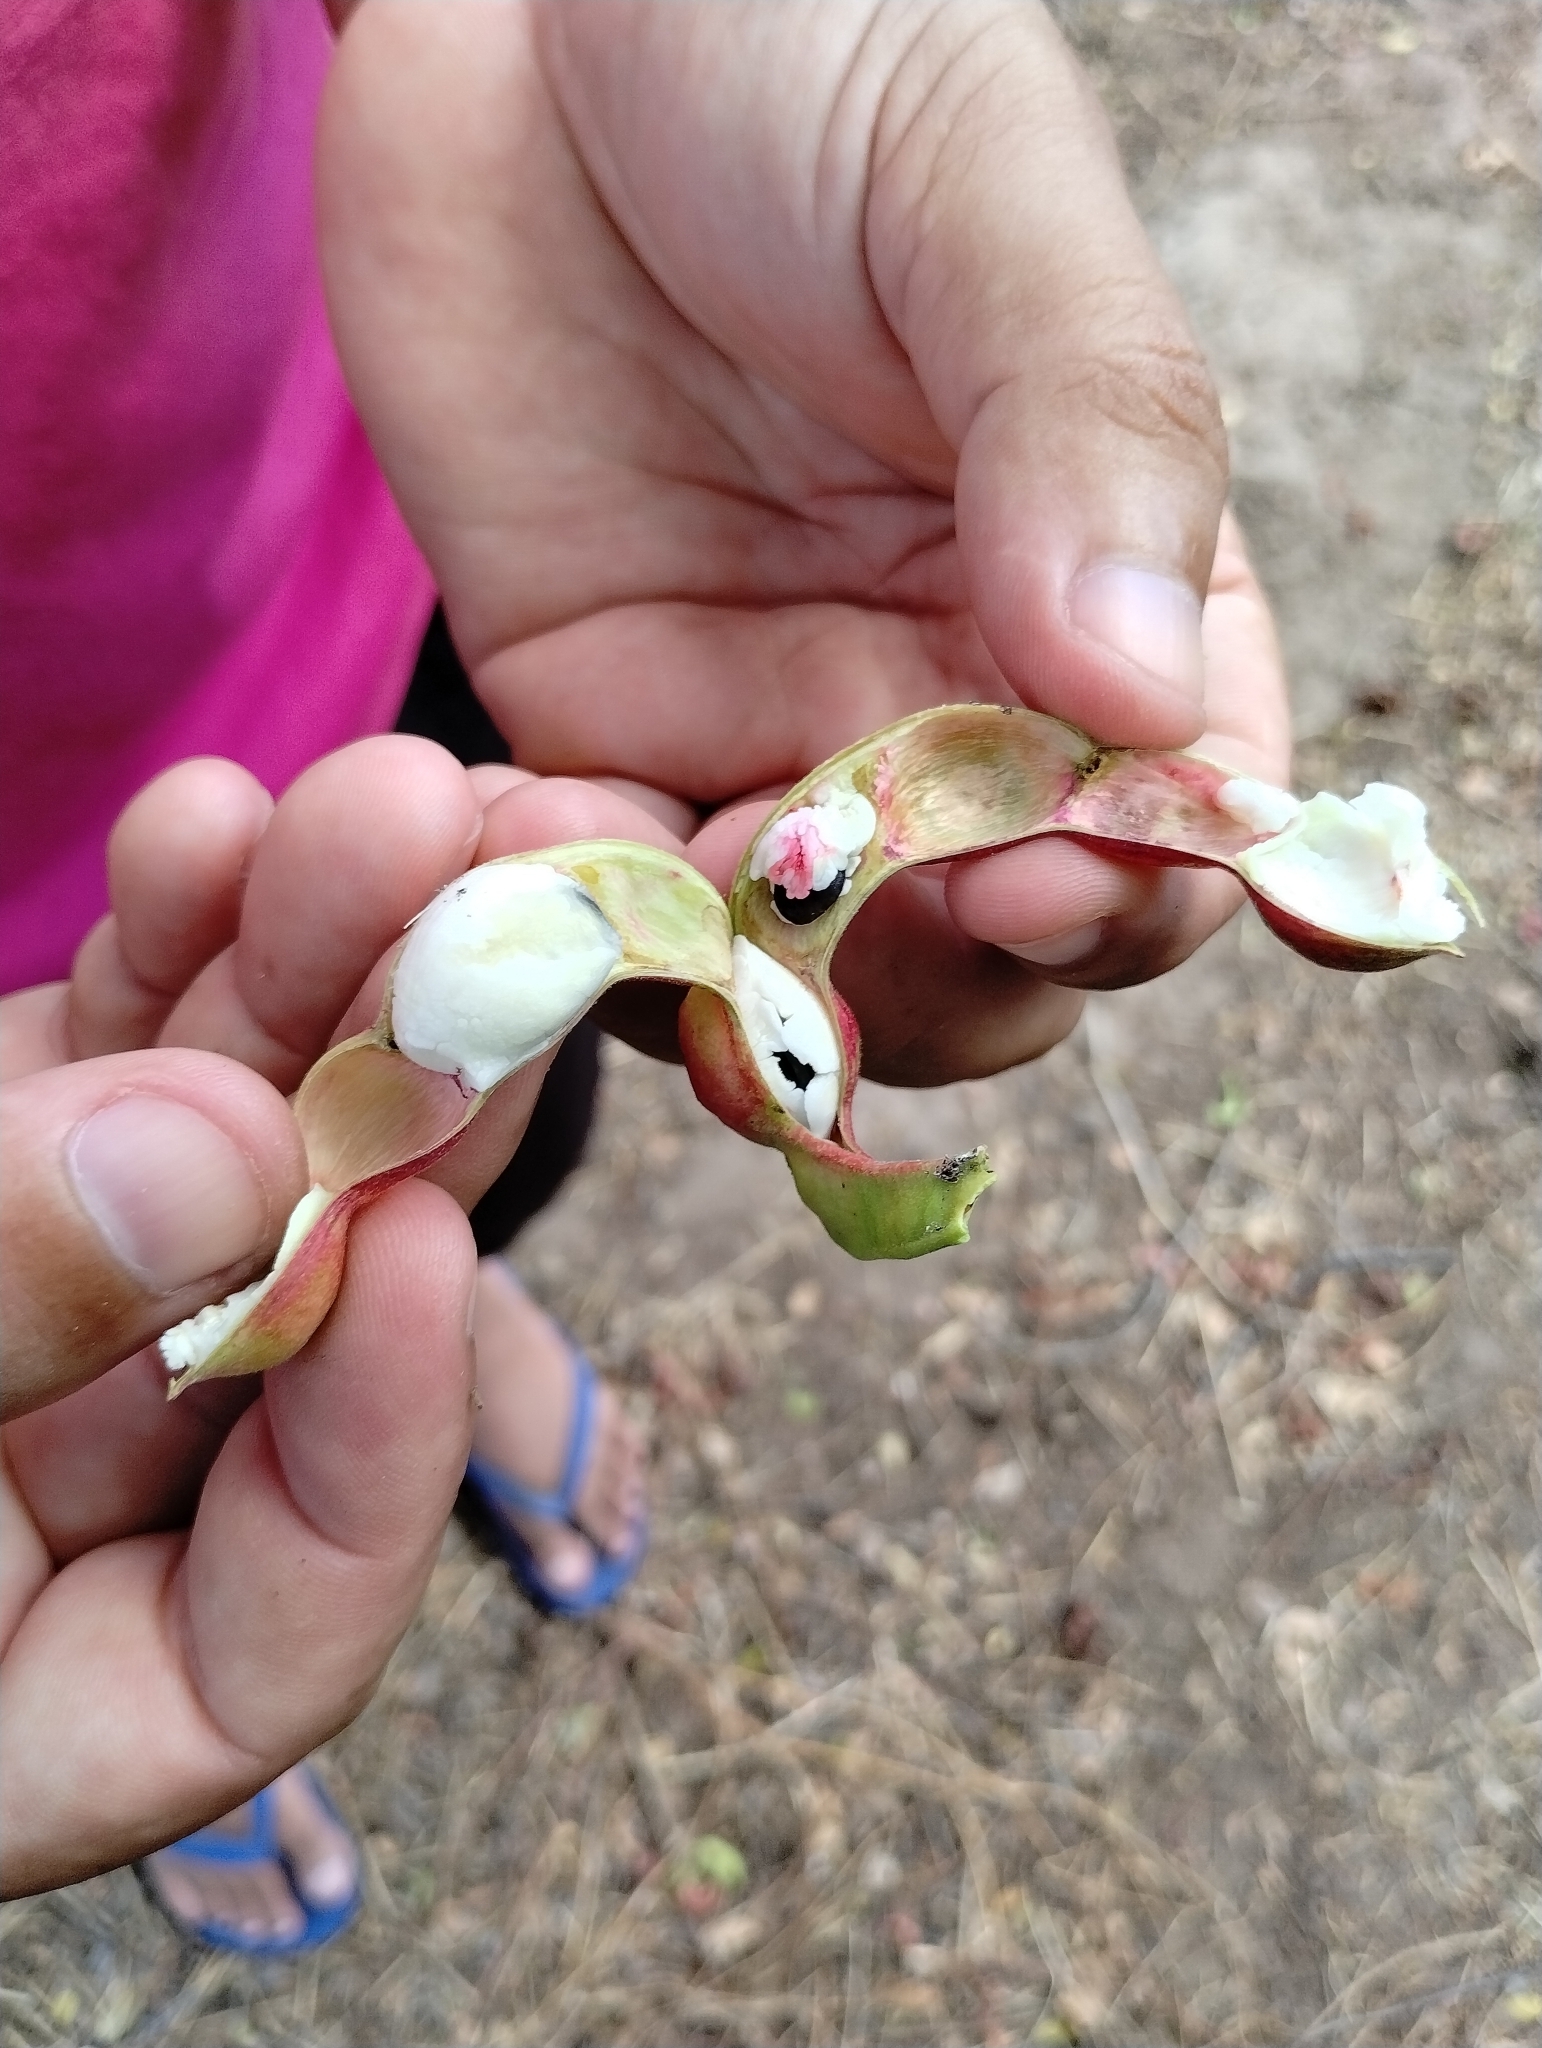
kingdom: Plantae
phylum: Tracheophyta
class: Magnoliopsida
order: Fabales
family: Fabaceae
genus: Pithecellobium
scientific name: Pithecellobium dulce
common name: Monkeypod
